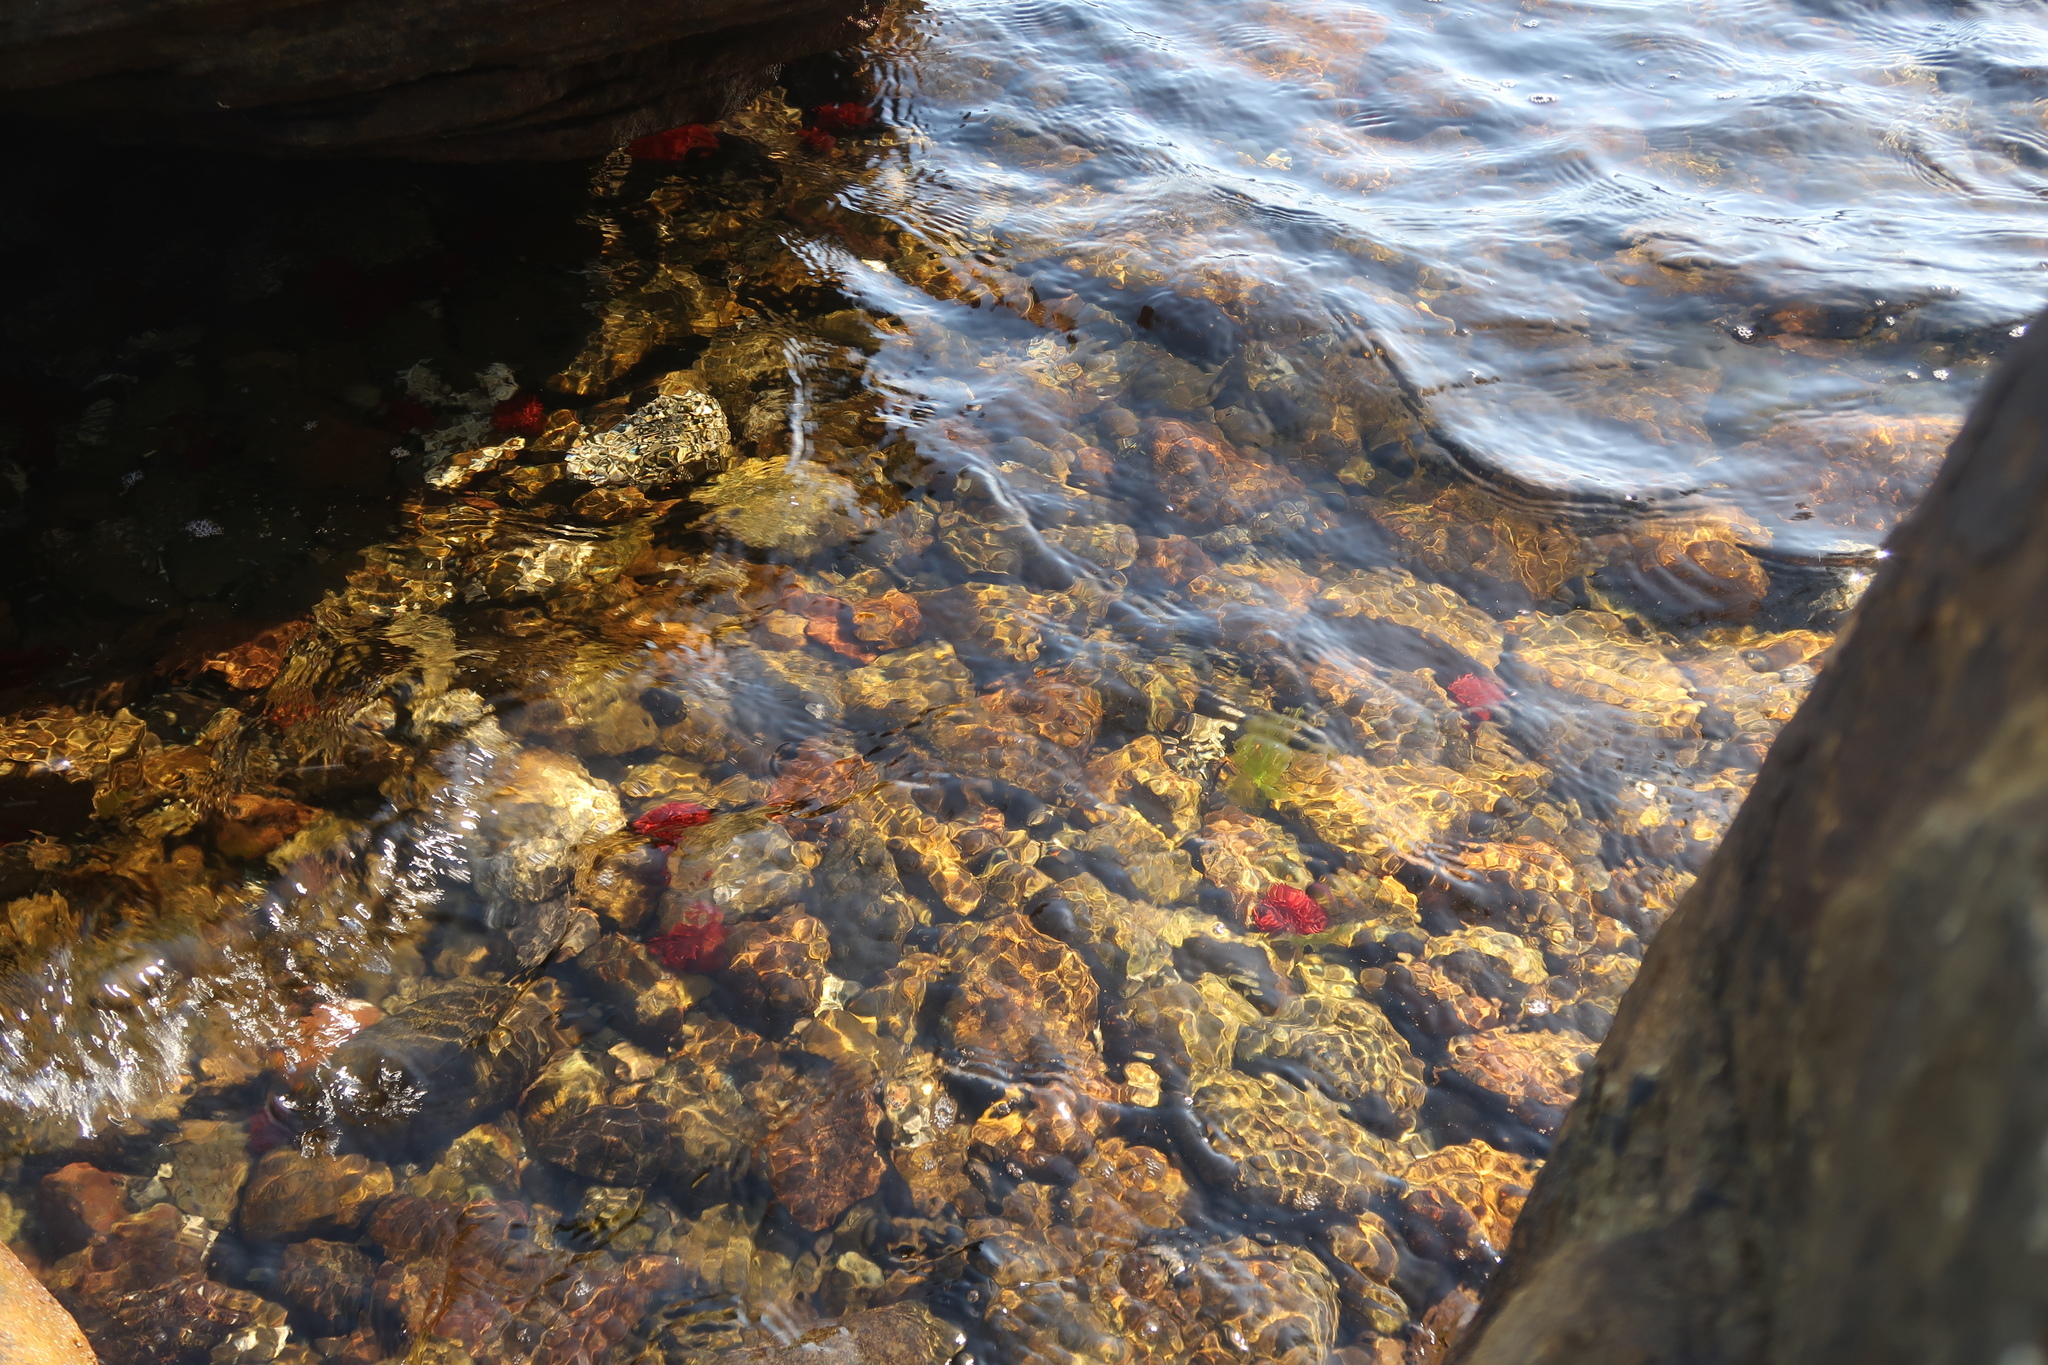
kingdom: Animalia
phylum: Cnidaria
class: Anthozoa
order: Actiniaria
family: Actiniidae
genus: Actinia
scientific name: Actinia tenebrosa
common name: Waratah anemone
